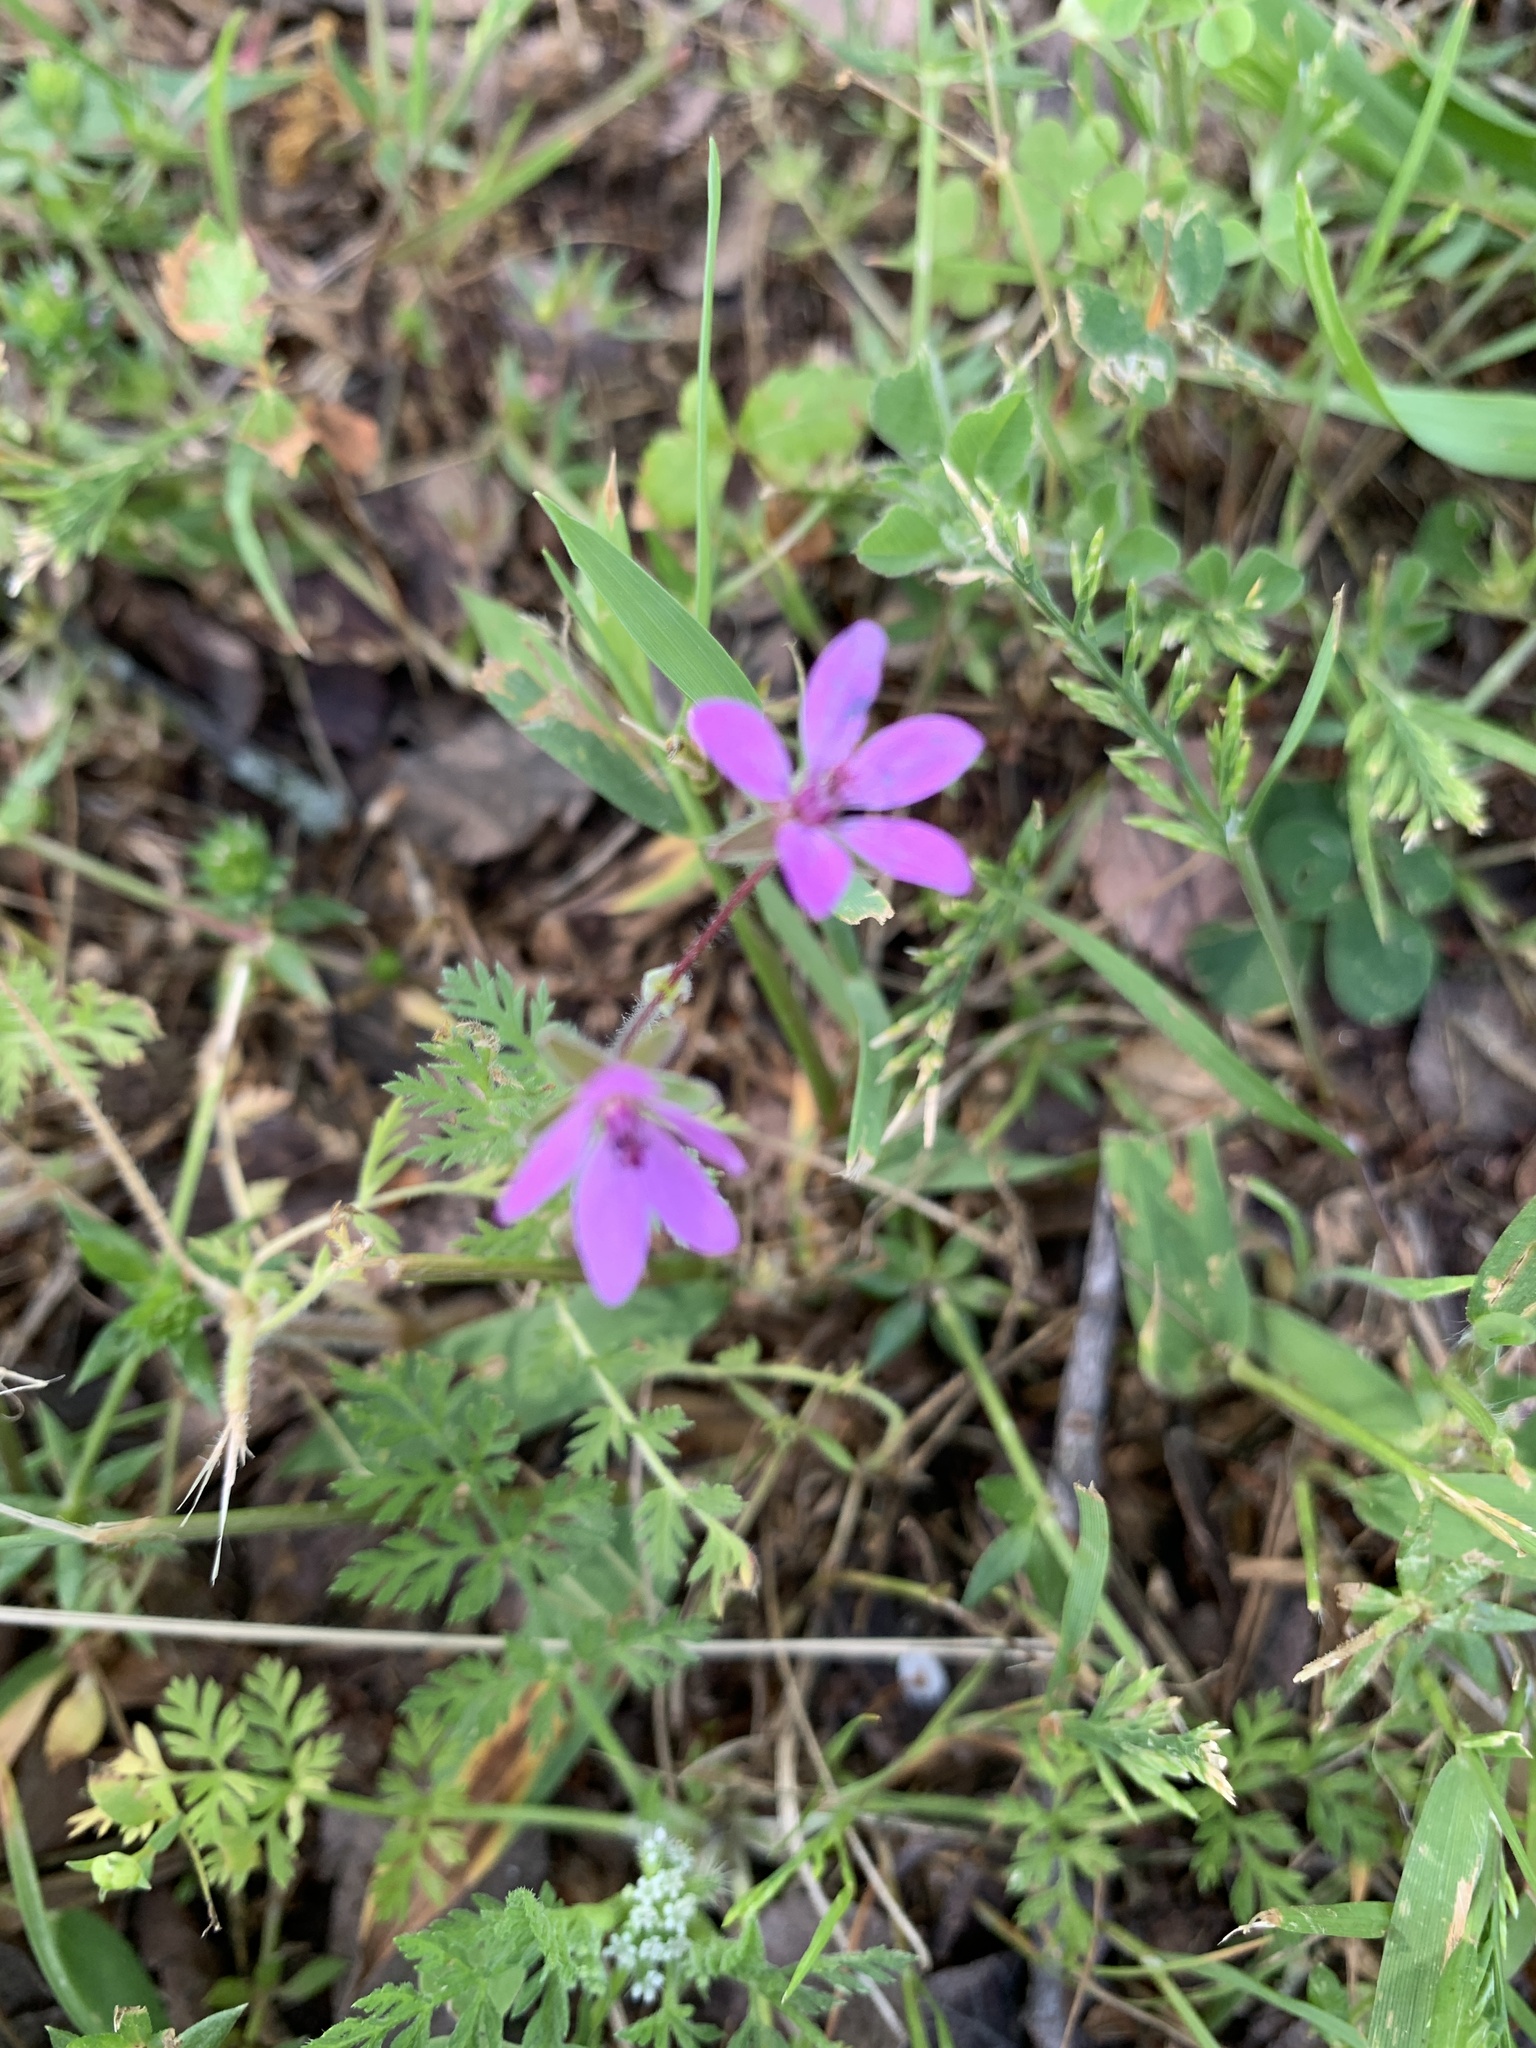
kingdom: Plantae
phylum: Tracheophyta
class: Magnoliopsida
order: Geraniales
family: Geraniaceae
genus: Erodium
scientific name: Erodium cicutarium
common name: Common stork's-bill
